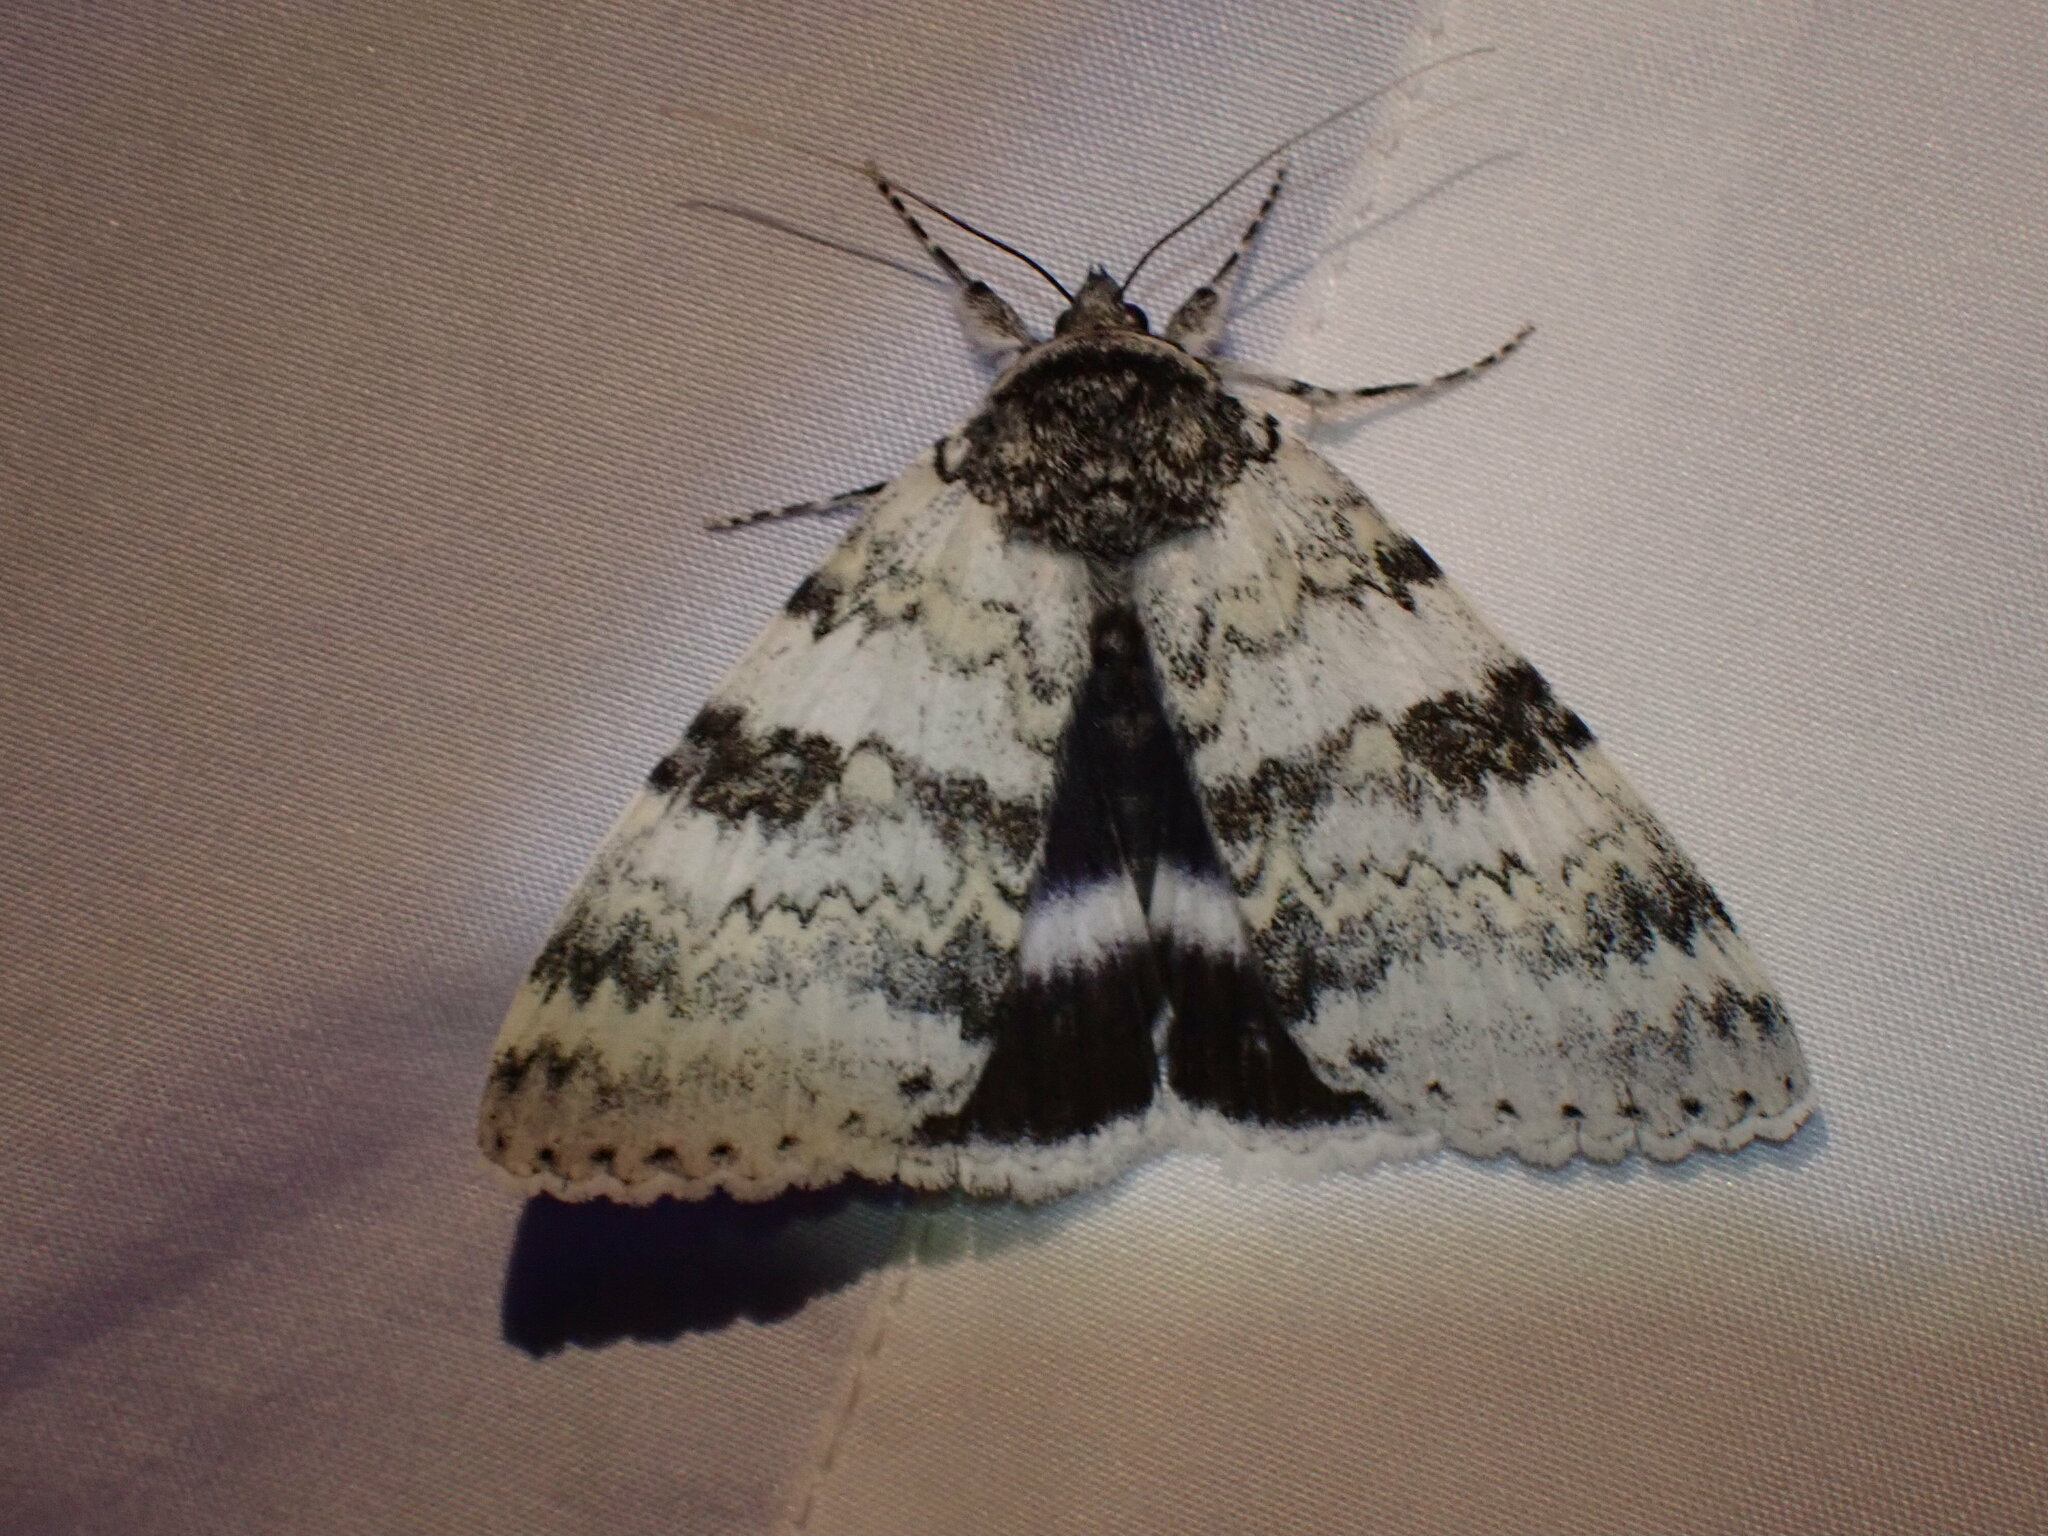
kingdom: Animalia
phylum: Arthropoda
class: Insecta
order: Lepidoptera
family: Erebidae
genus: Catocala
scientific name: Catocala relicta
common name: White underwing
